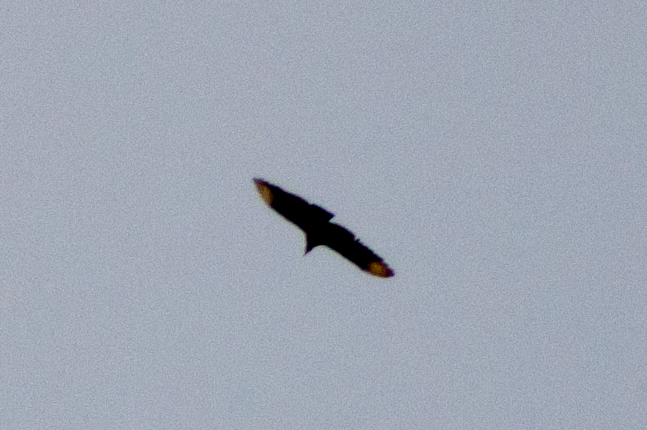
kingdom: Animalia
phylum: Chordata
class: Aves
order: Accipitriformes
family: Cathartidae
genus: Coragyps
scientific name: Coragyps atratus
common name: Black vulture
